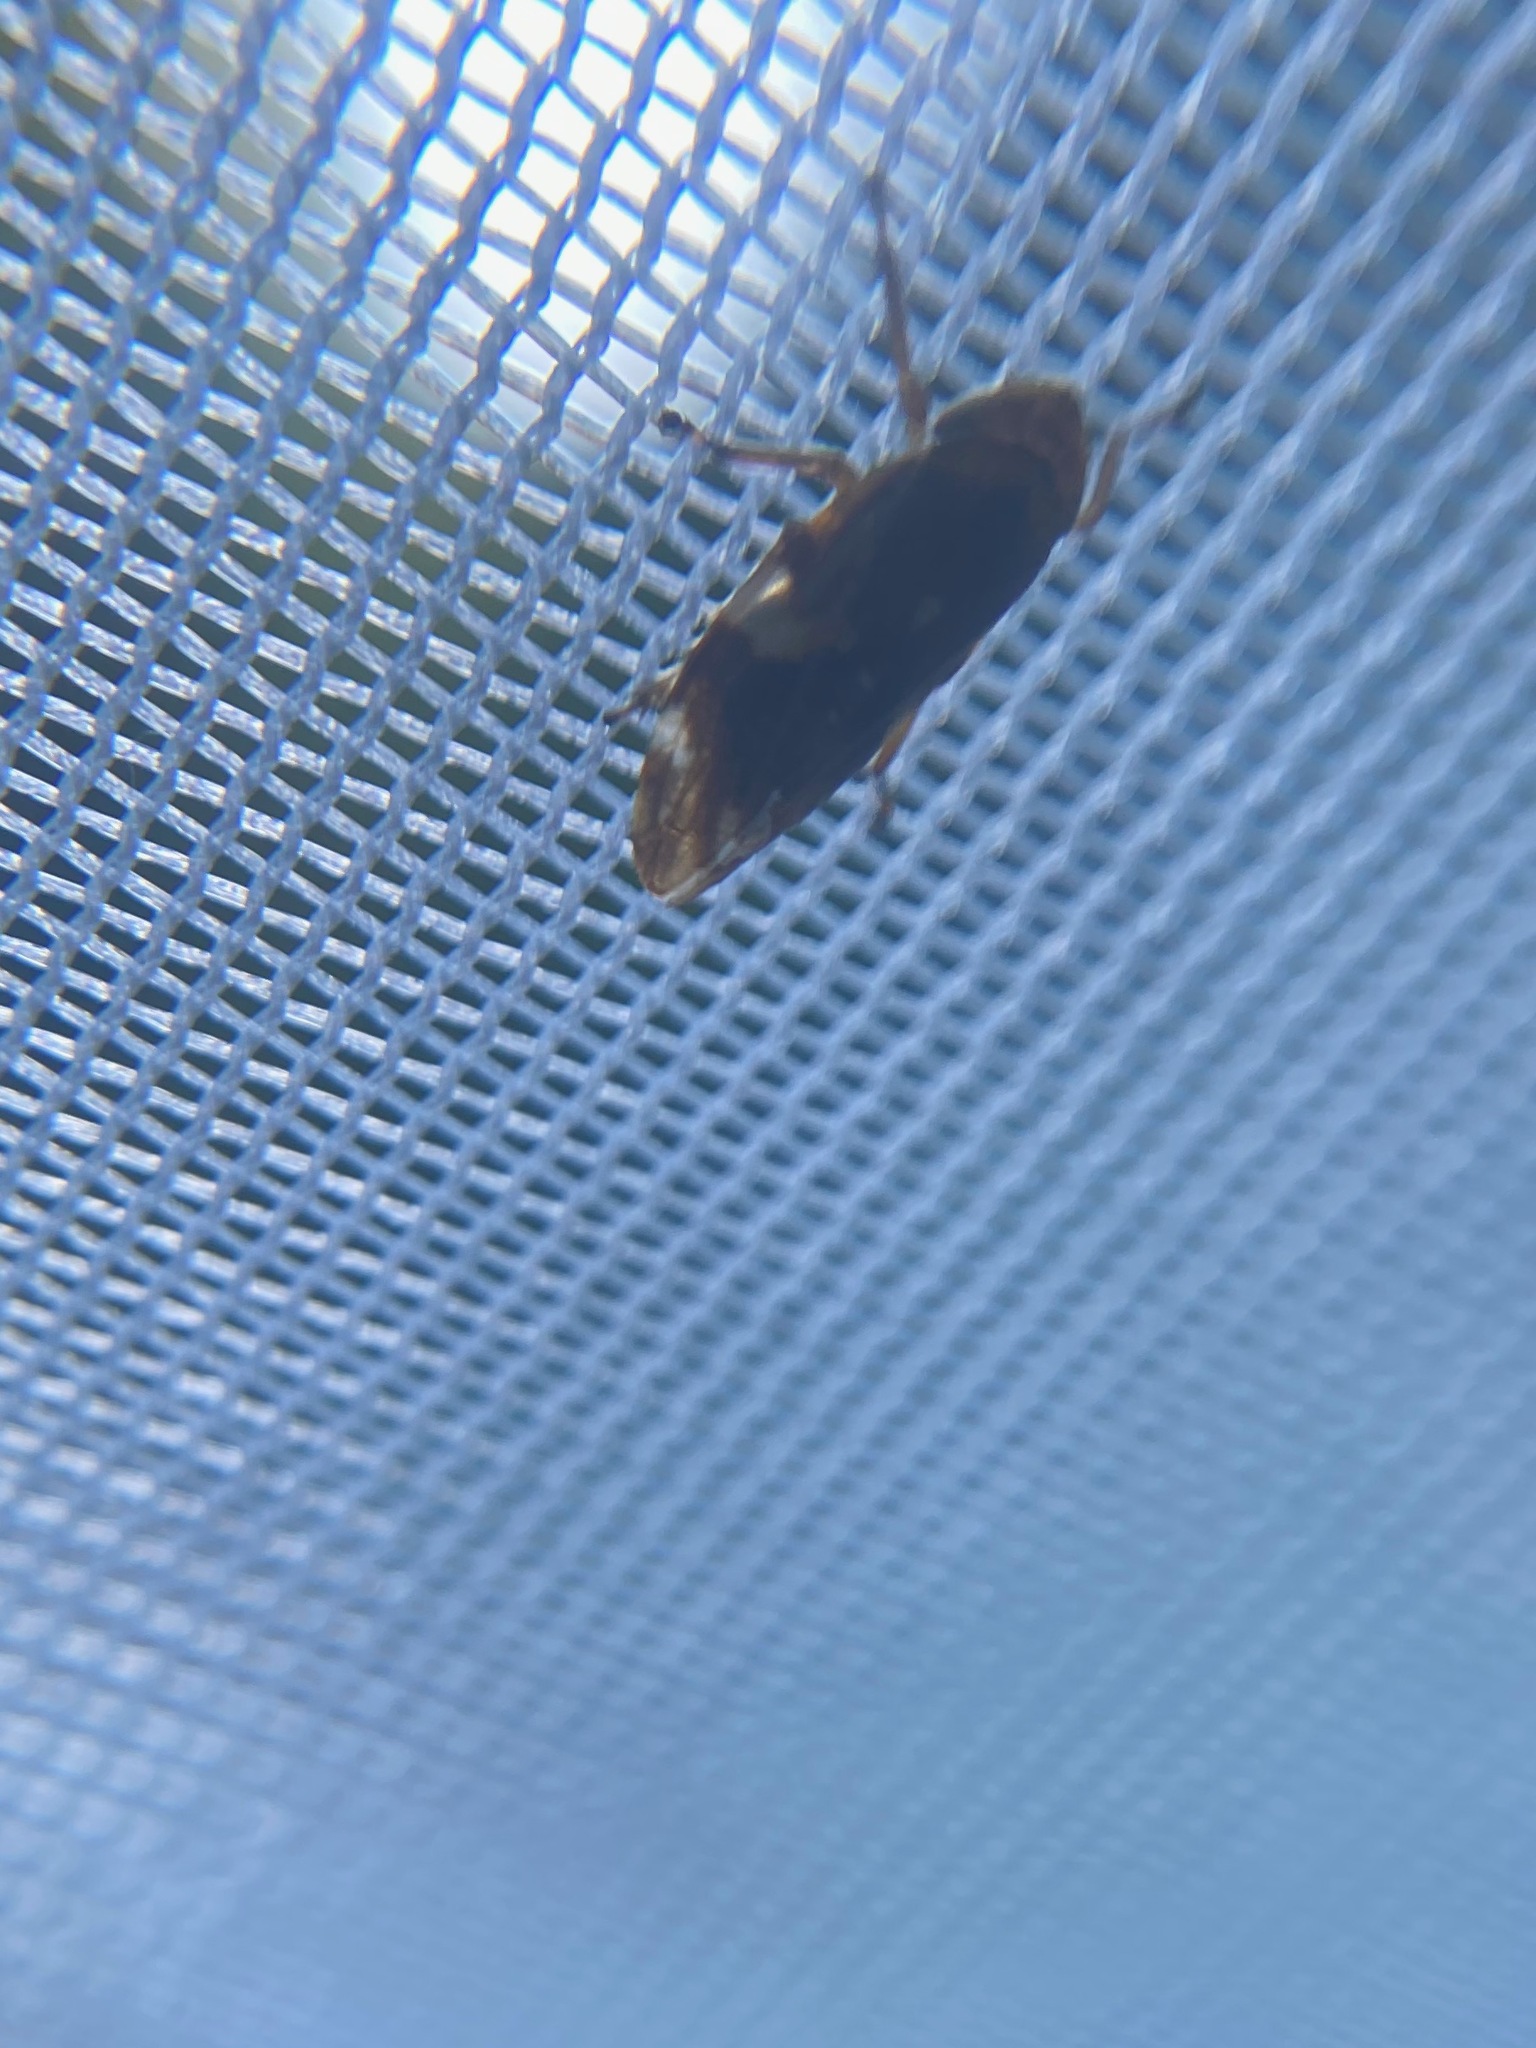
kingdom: Animalia
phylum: Arthropoda
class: Insecta
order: Hemiptera
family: Aphrophoridae
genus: Philaenus
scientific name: Philaenus spumarius
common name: Meadow spittlebug
